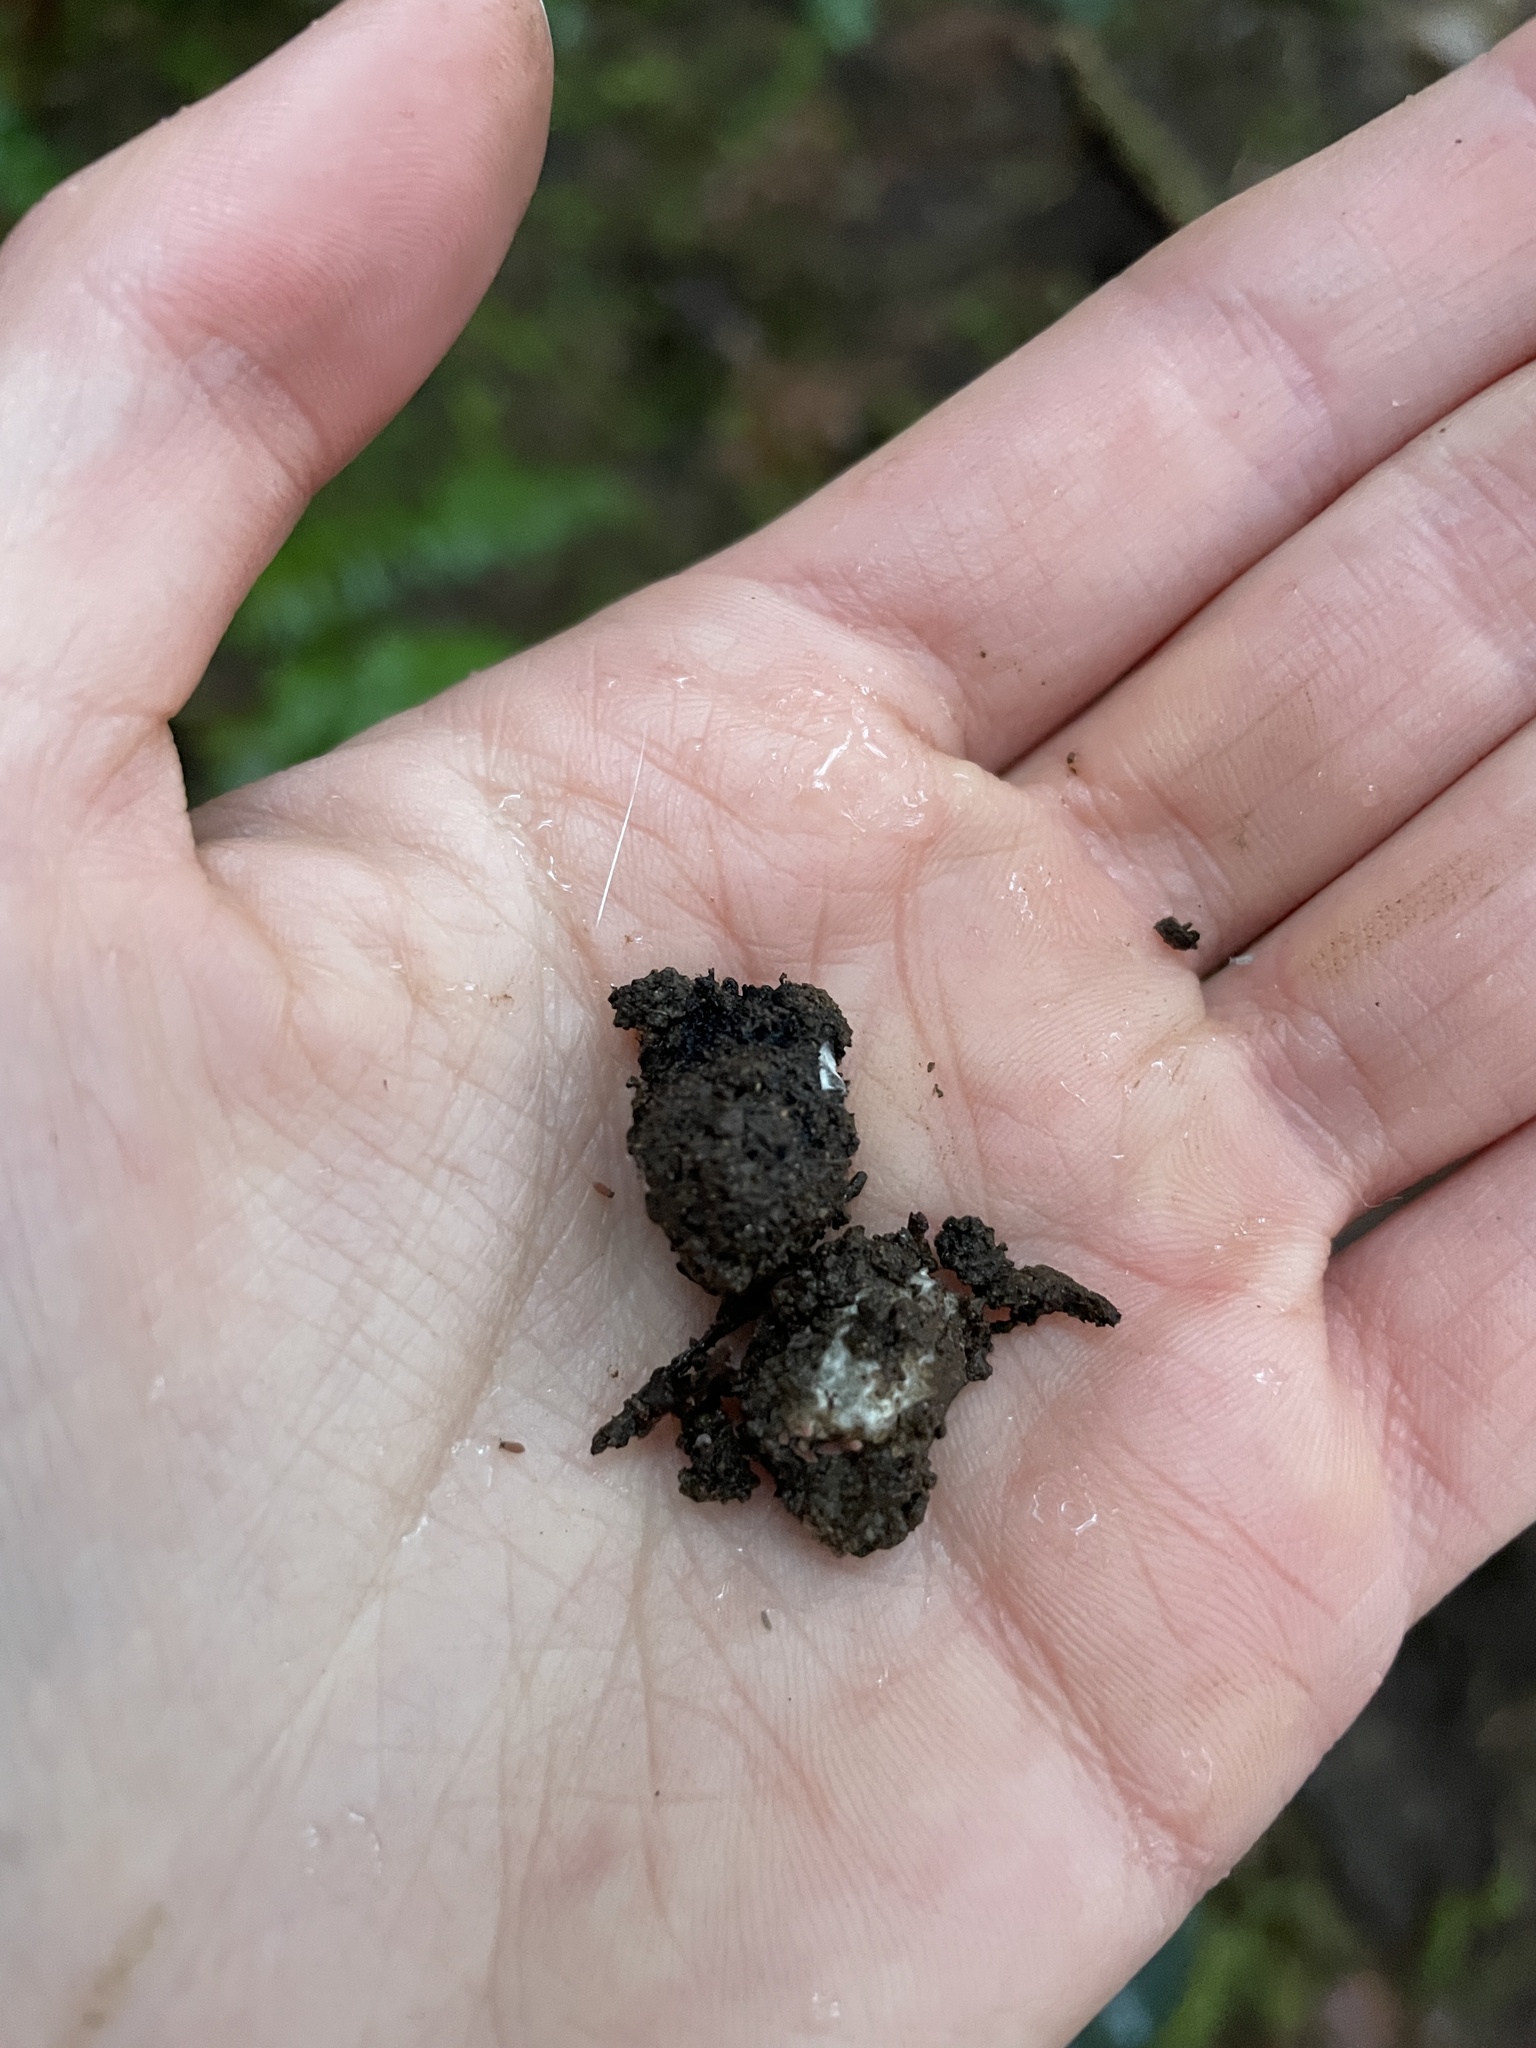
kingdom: Fungi
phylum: Ascomycota
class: Pezizomycetes
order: Pezizales
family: Morchellaceae
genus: Leucangium
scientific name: Leucangium carthusianum
